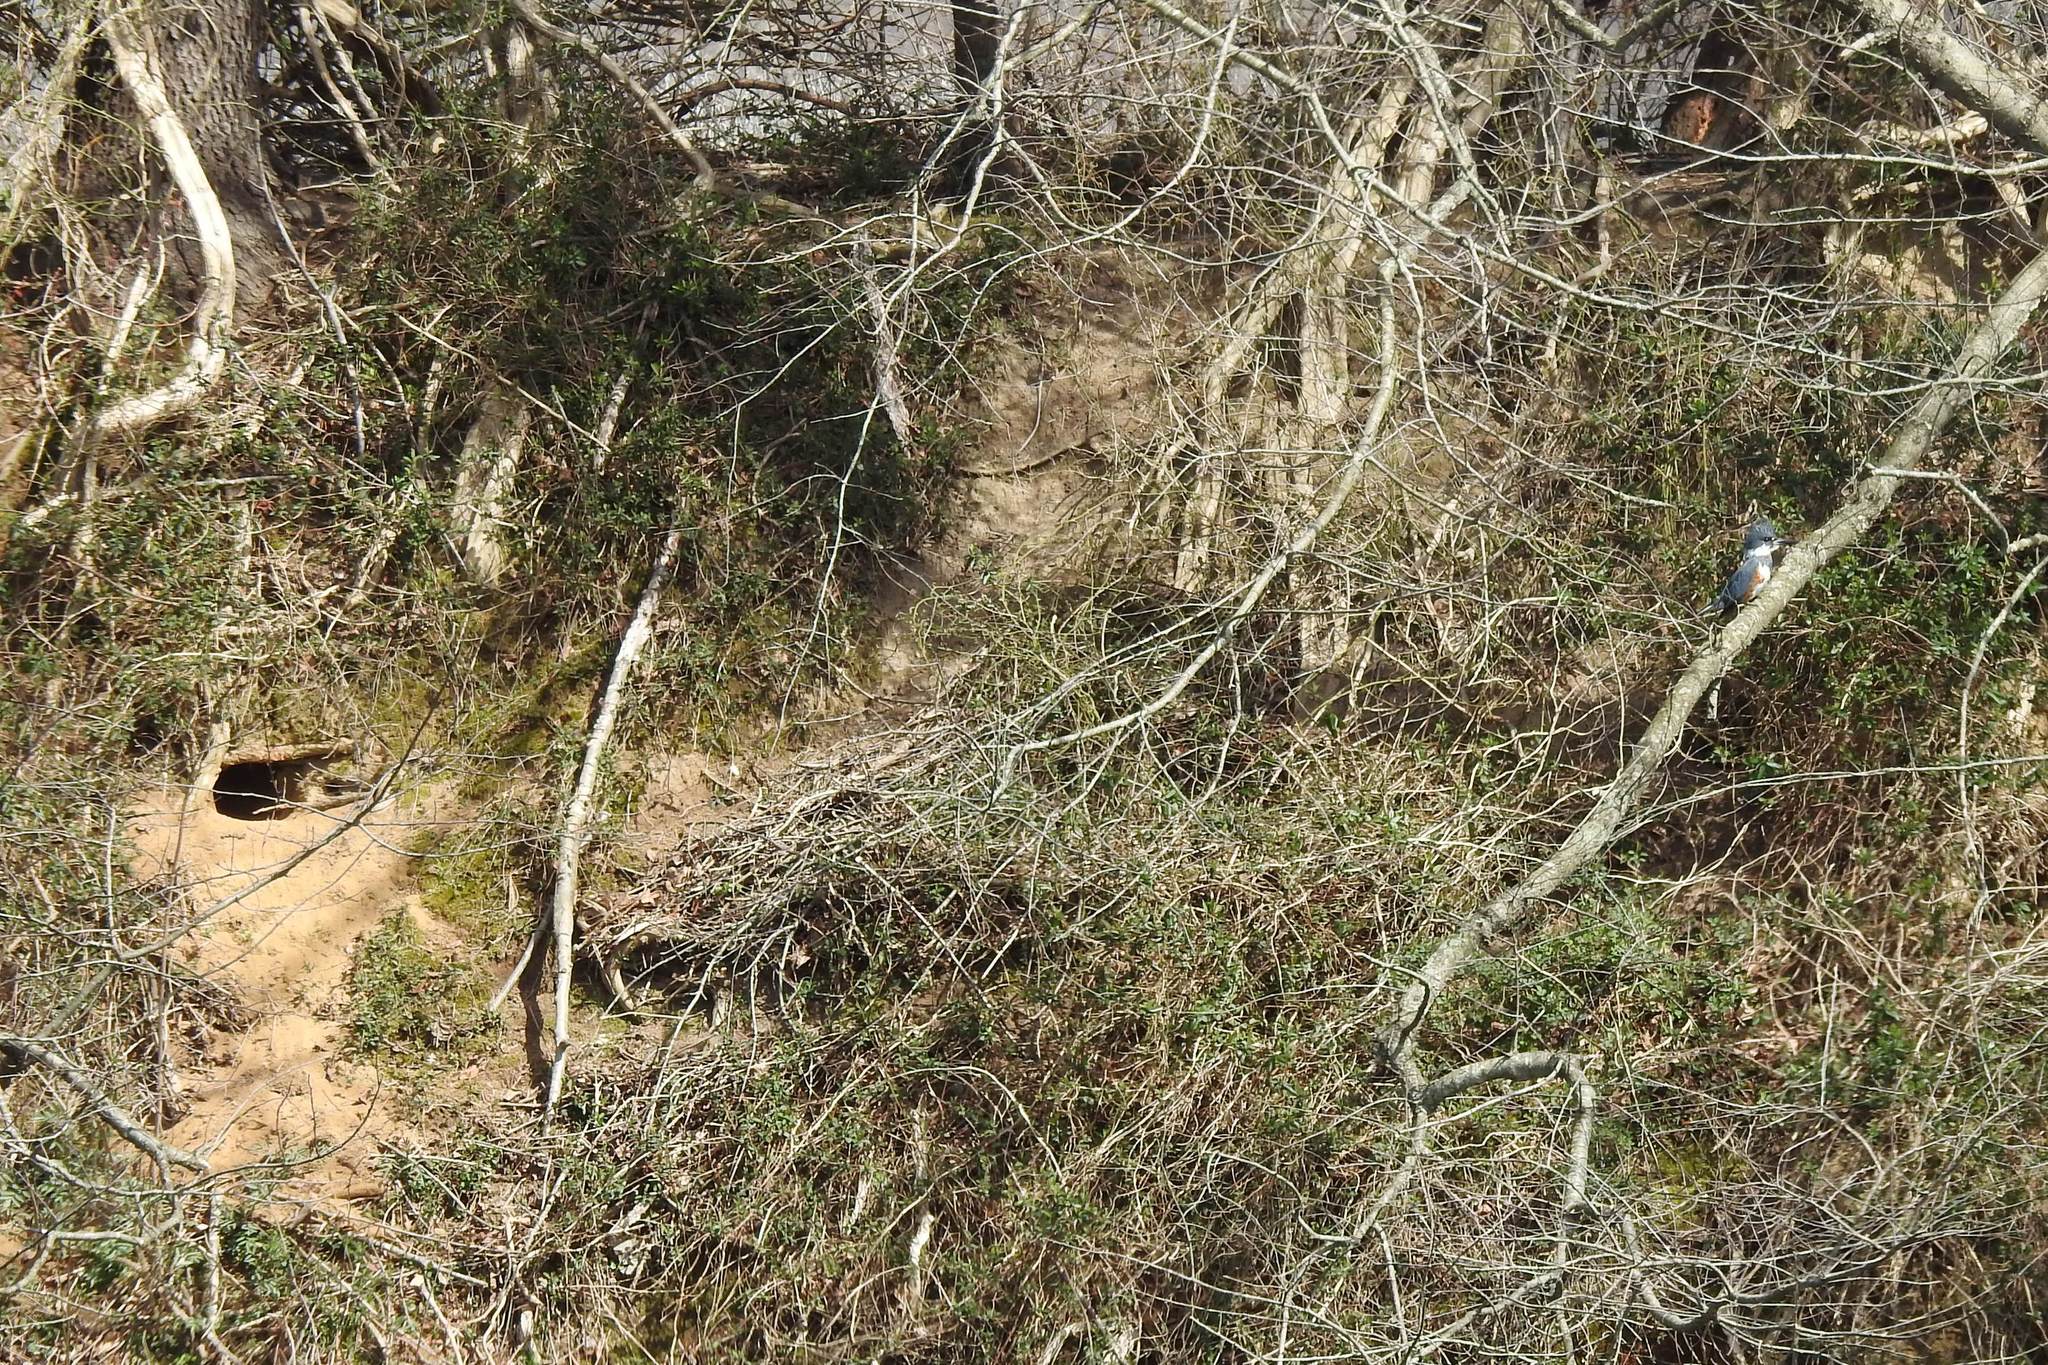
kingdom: Animalia
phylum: Chordata
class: Aves
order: Coraciiformes
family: Alcedinidae
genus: Megaceryle
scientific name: Megaceryle alcyon
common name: Belted kingfisher
